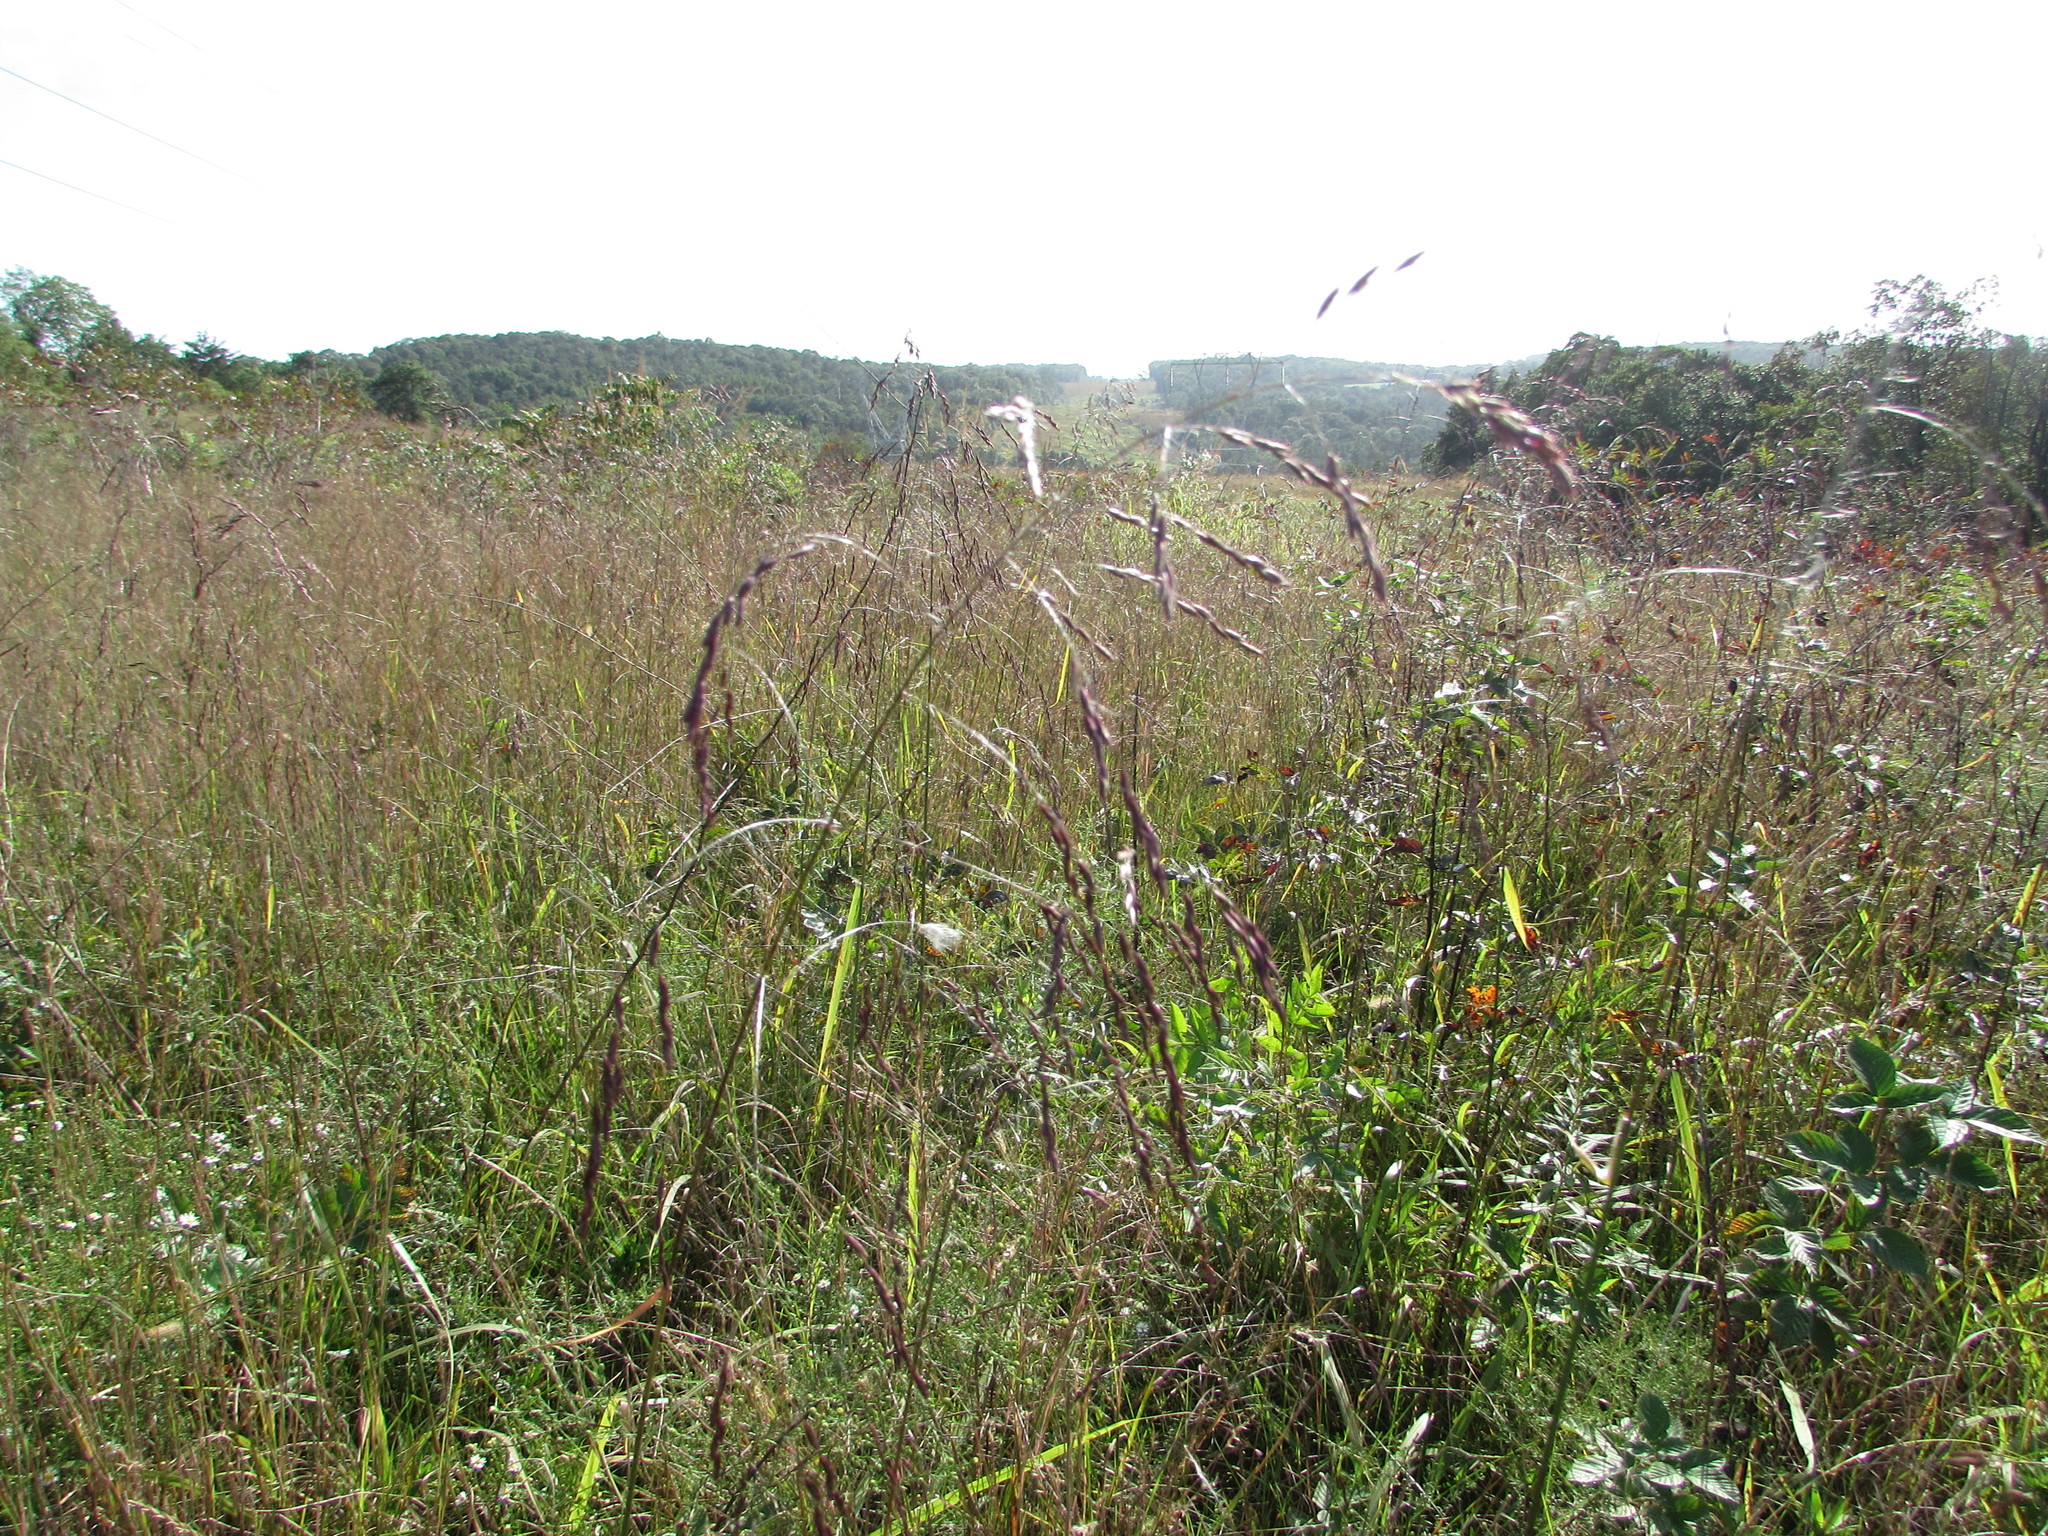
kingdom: Plantae
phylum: Tracheophyta
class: Liliopsida
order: Poales
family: Poaceae
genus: Tridens
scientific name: Tridens flavus
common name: Purpletop
